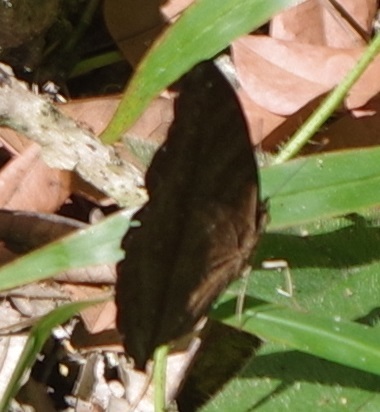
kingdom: Animalia
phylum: Arthropoda
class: Insecta
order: Lepidoptera
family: Nymphalidae
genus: Junonia
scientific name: Junonia iphita
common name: Chocolate pansy
